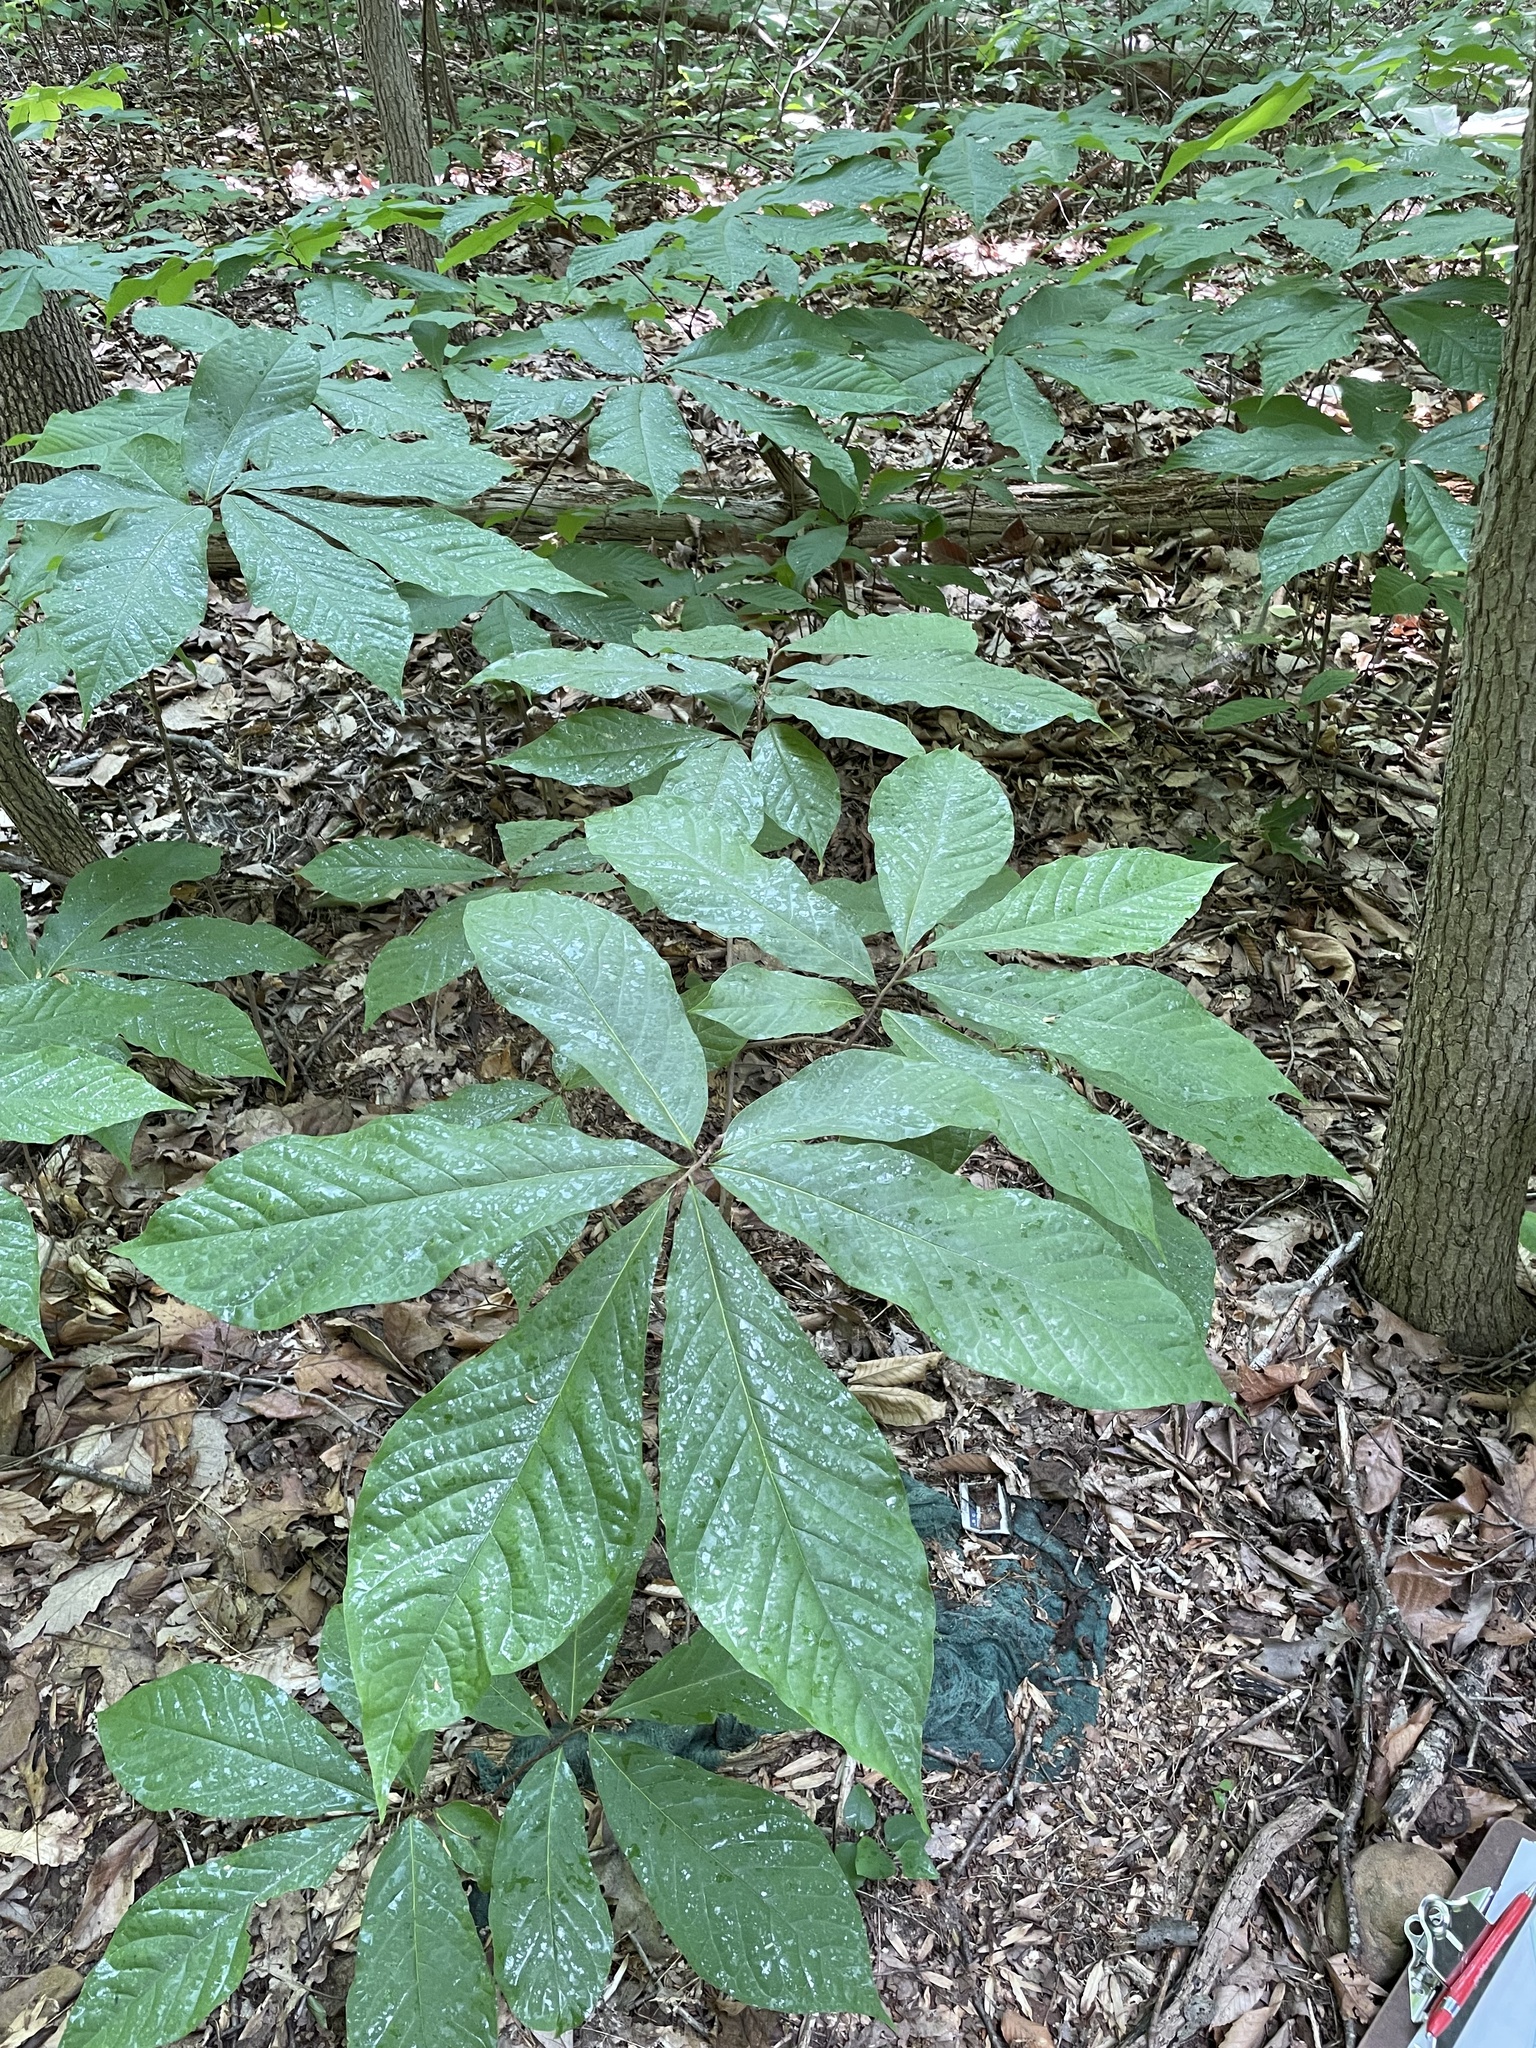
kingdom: Plantae
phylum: Tracheophyta
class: Magnoliopsida
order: Magnoliales
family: Annonaceae
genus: Asimina
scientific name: Asimina triloba
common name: Dog-banana
